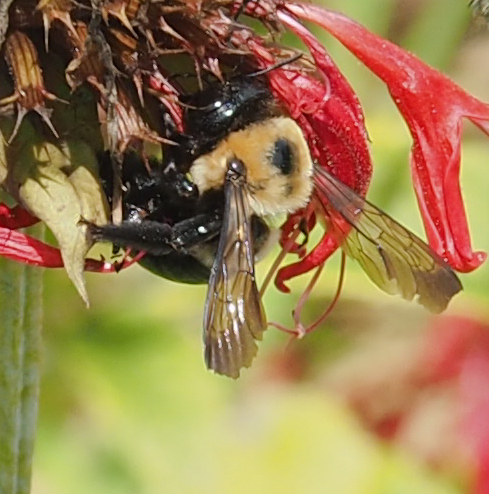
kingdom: Animalia
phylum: Arthropoda
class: Insecta
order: Hymenoptera
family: Apidae
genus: Xylocopa
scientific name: Xylocopa virginica
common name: Carpenter bee
